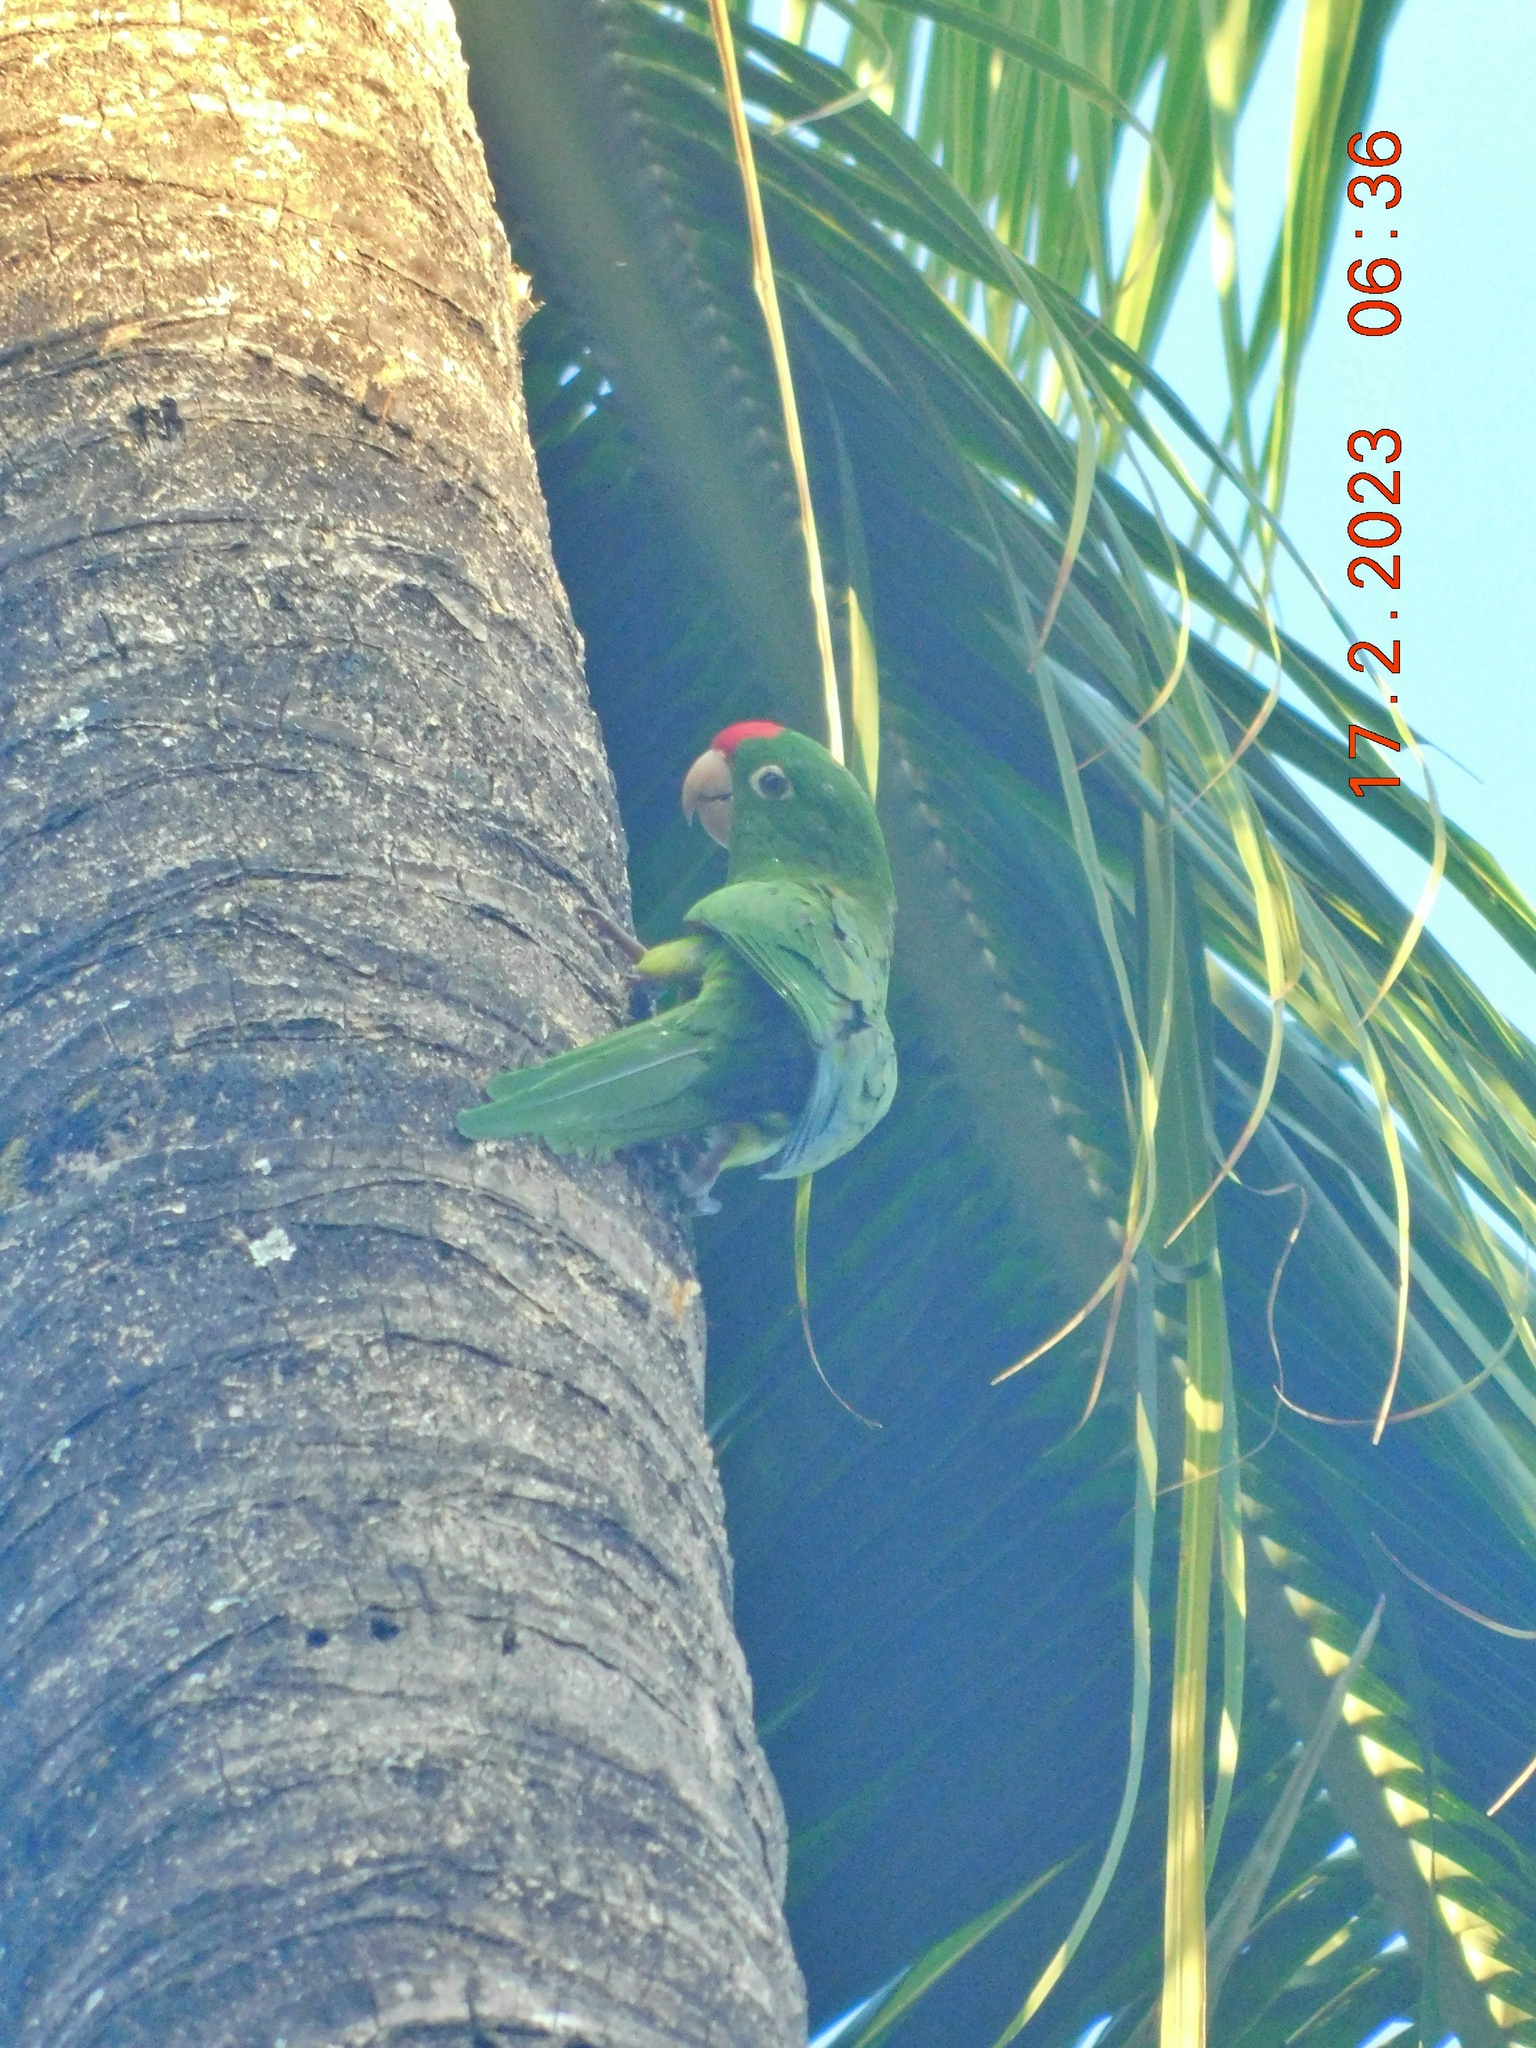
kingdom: Animalia
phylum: Chordata
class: Aves
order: Psittaciformes
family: Psittacidae
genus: Aratinga
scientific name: Aratinga finschi
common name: Crimson-fronted parakeet
